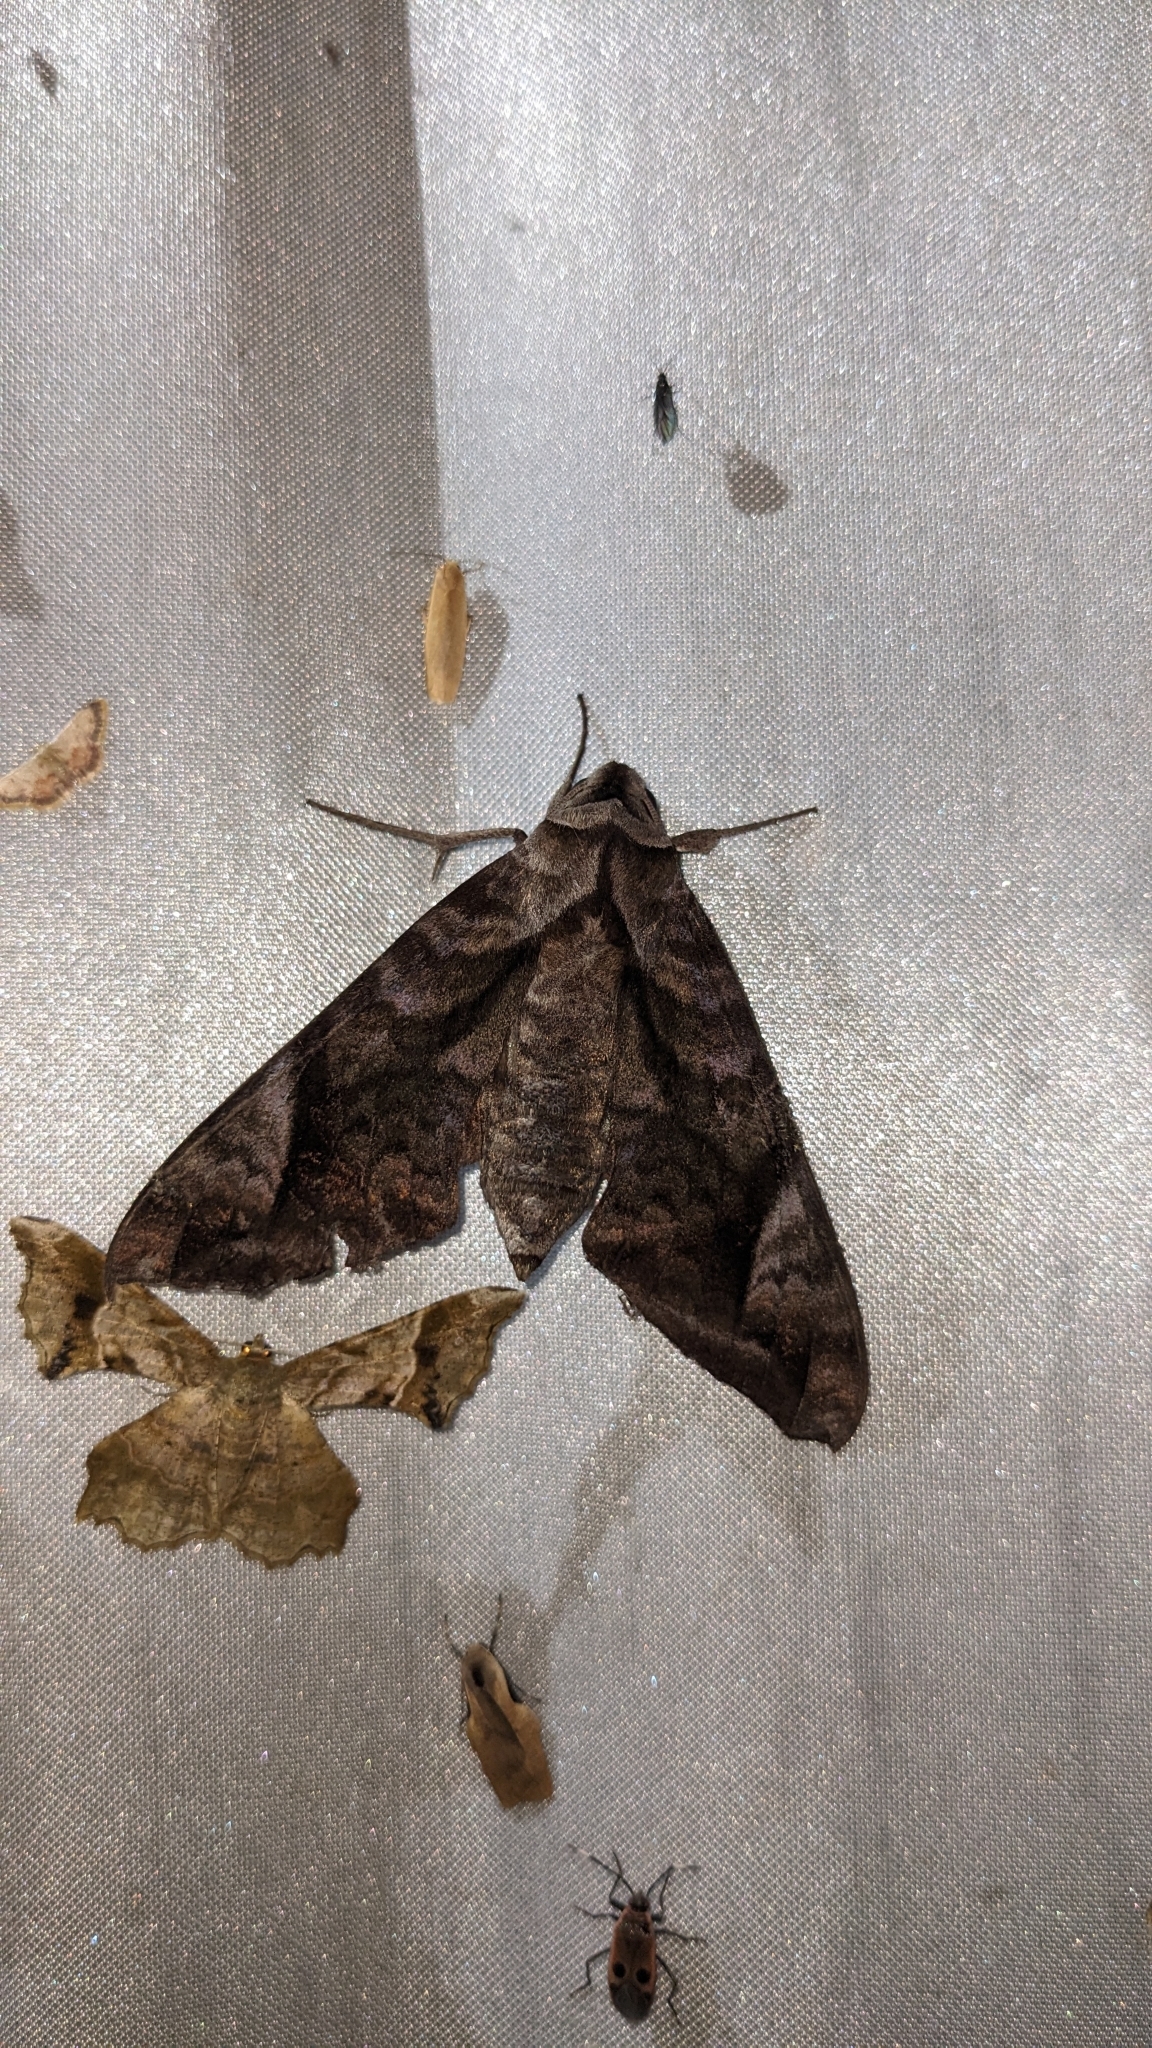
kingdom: Animalia
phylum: Arthropoda
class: Insecta
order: Lepidoptera
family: Sphingidae
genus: Acosmeryx
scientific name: Acosmeryx naga
